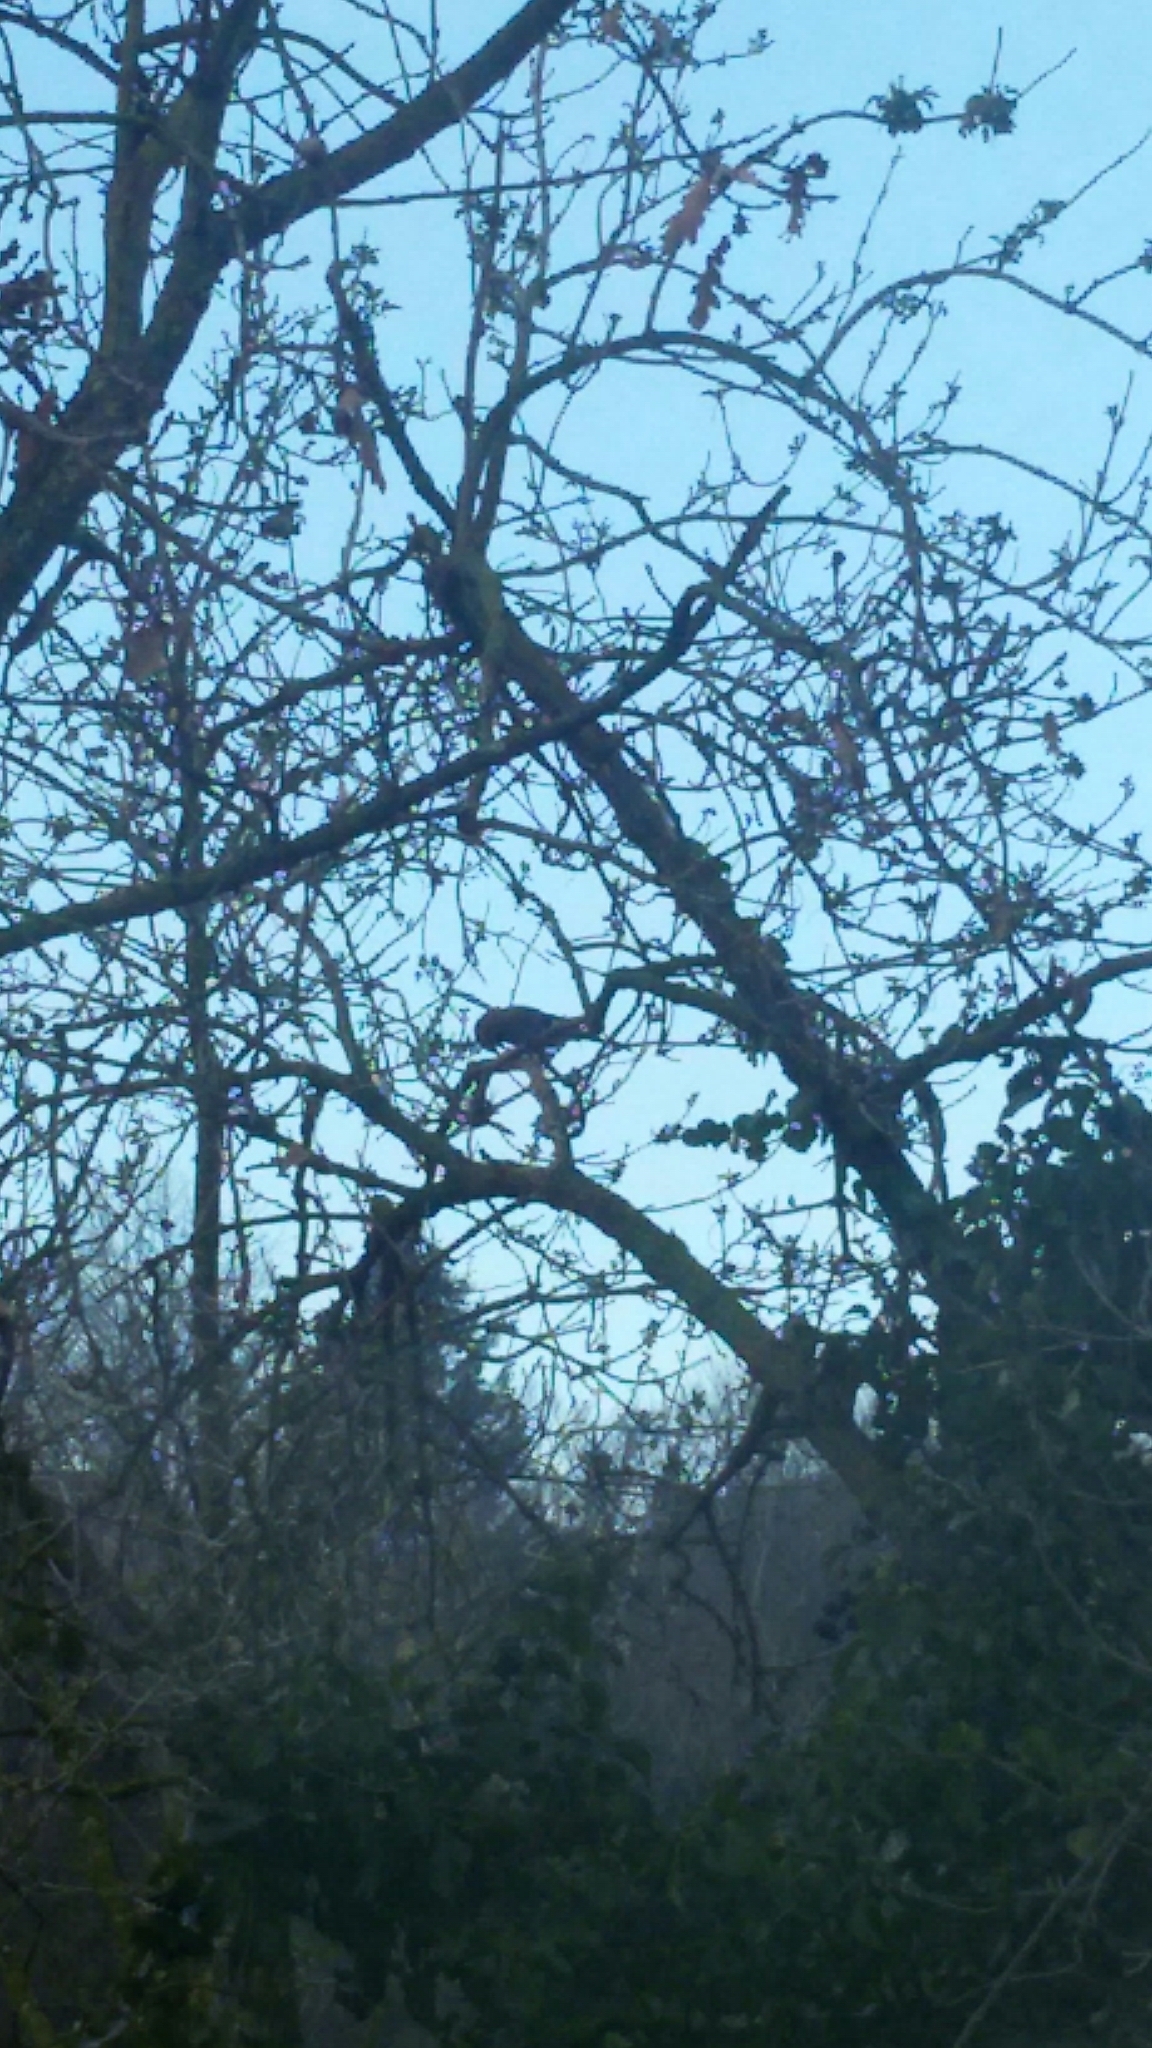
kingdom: Animalia
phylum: Chordata
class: Aves
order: Passeriformes
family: Corvidae
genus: Garrulus
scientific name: Garrulus glandarius
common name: Eurasian jay
